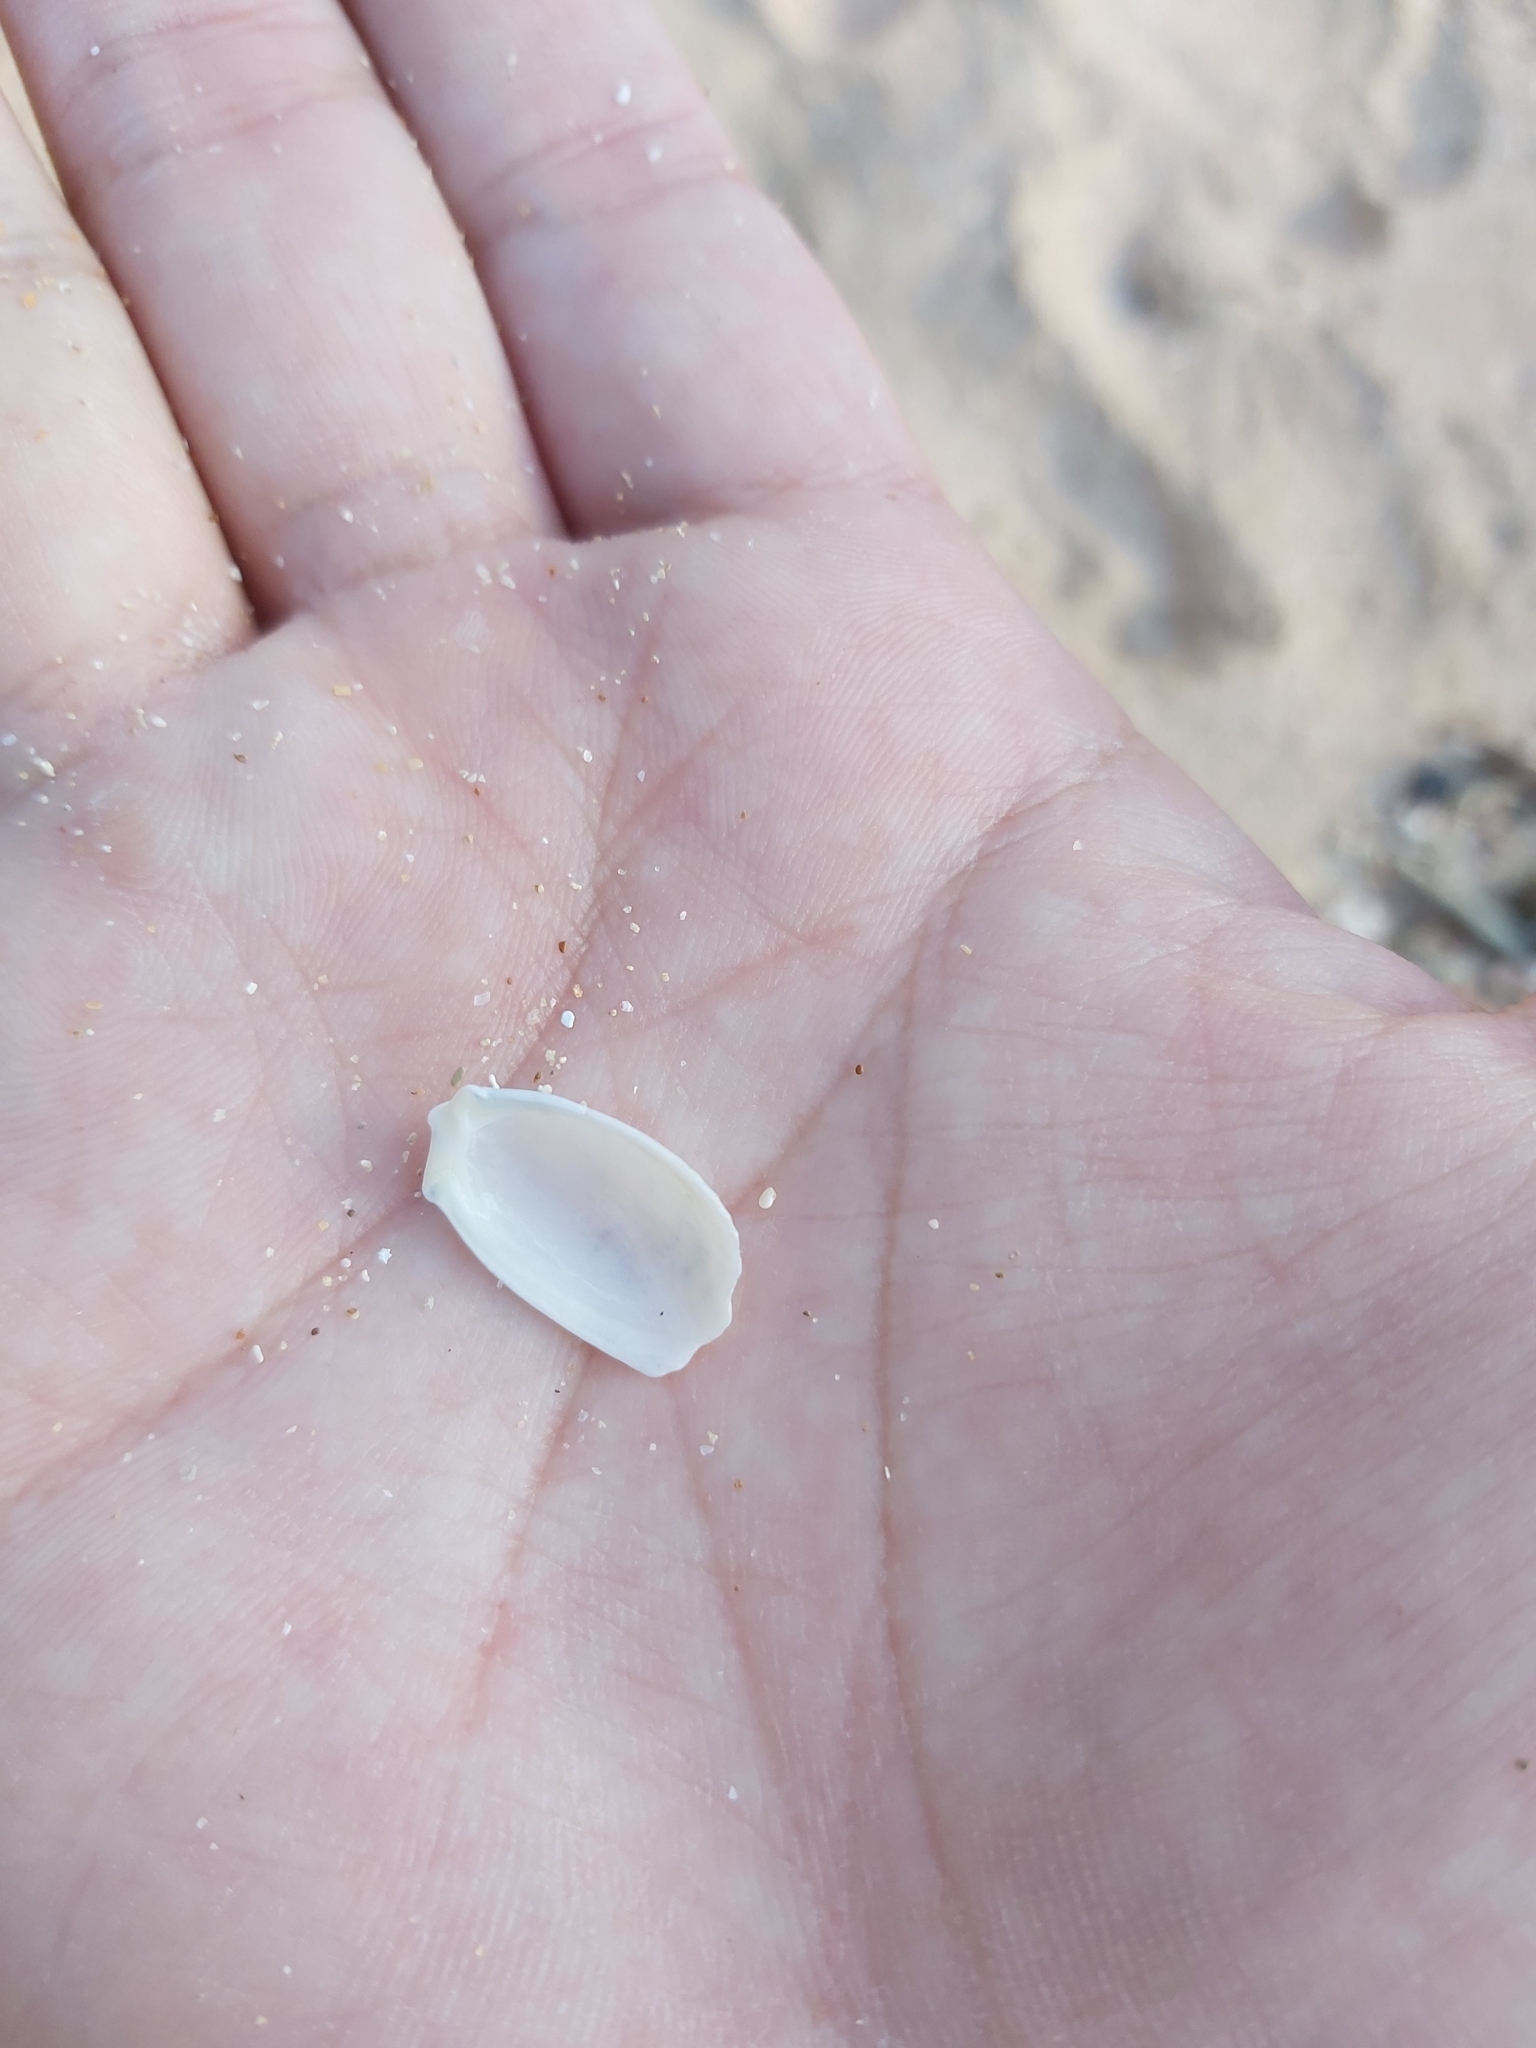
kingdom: Animalia
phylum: Mollusca
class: Bivalvia
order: Limida
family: Limidae
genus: Limatula
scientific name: Limatula strangei
